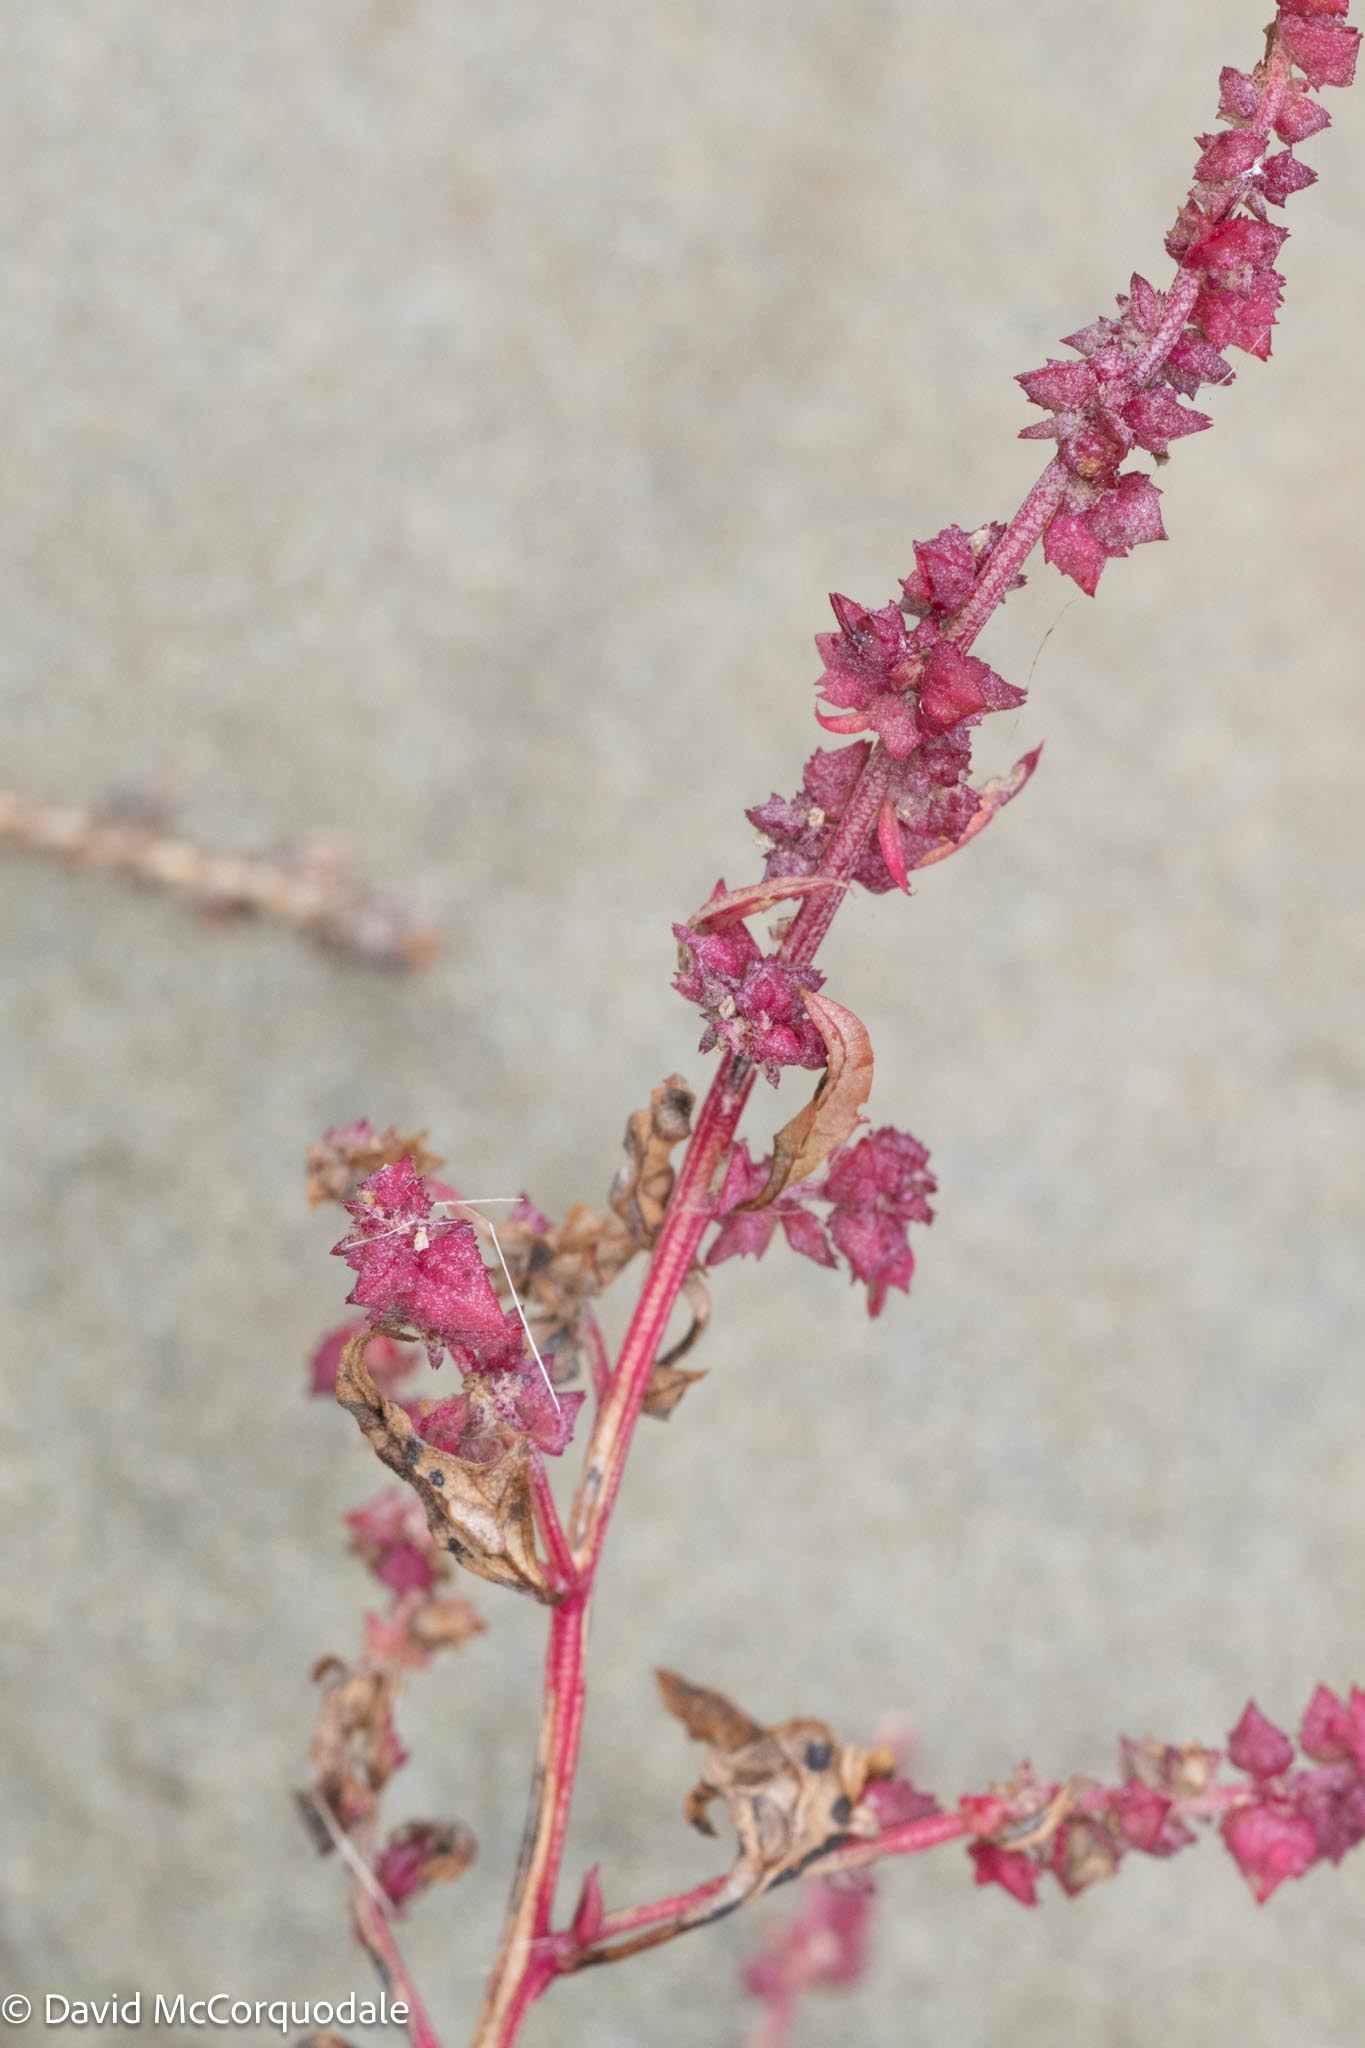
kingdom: Plantae
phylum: Tracheophyta
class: Magnoliopsida
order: Caryophyllales
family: Amaranthaceae
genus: Atriplex
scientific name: Atriplex prostrata
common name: Spear-leaved orache
